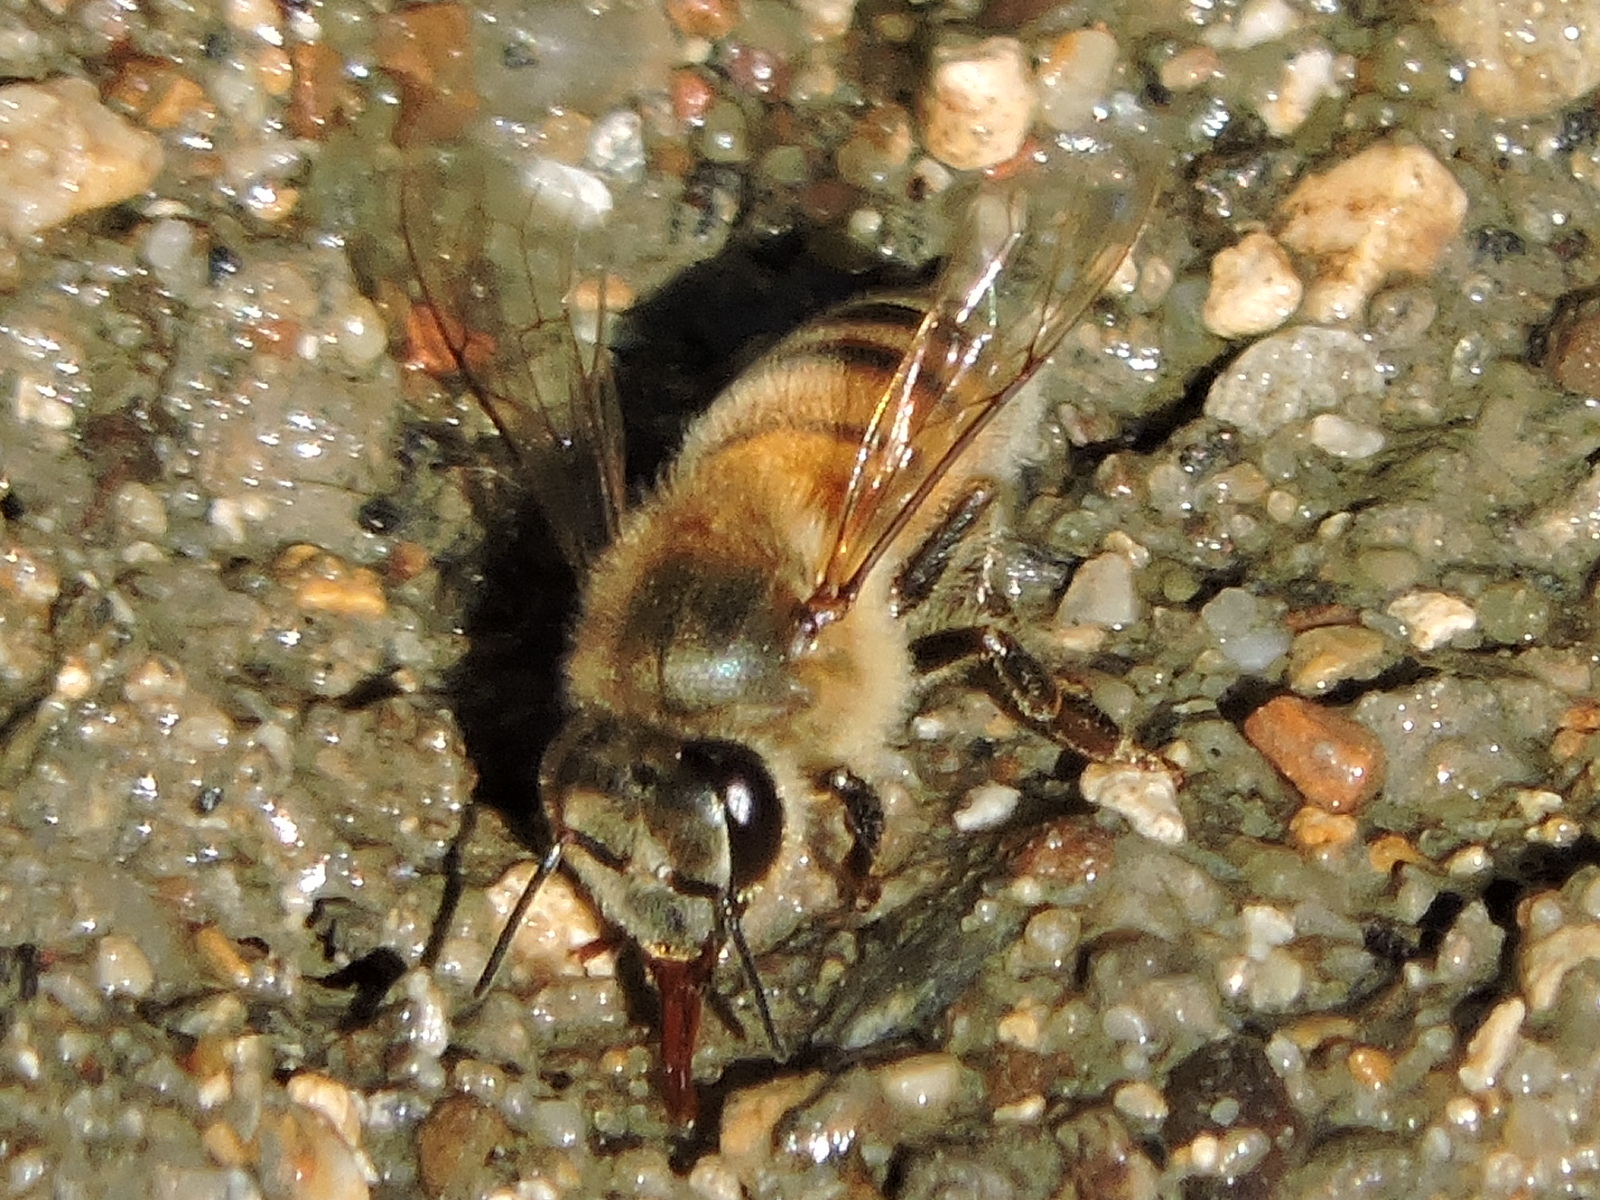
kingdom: Animalia
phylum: Arthropoda
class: Insecta
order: Hymenoptera
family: Apidae
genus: Apis
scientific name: Apis mellifera
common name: Honey bee
